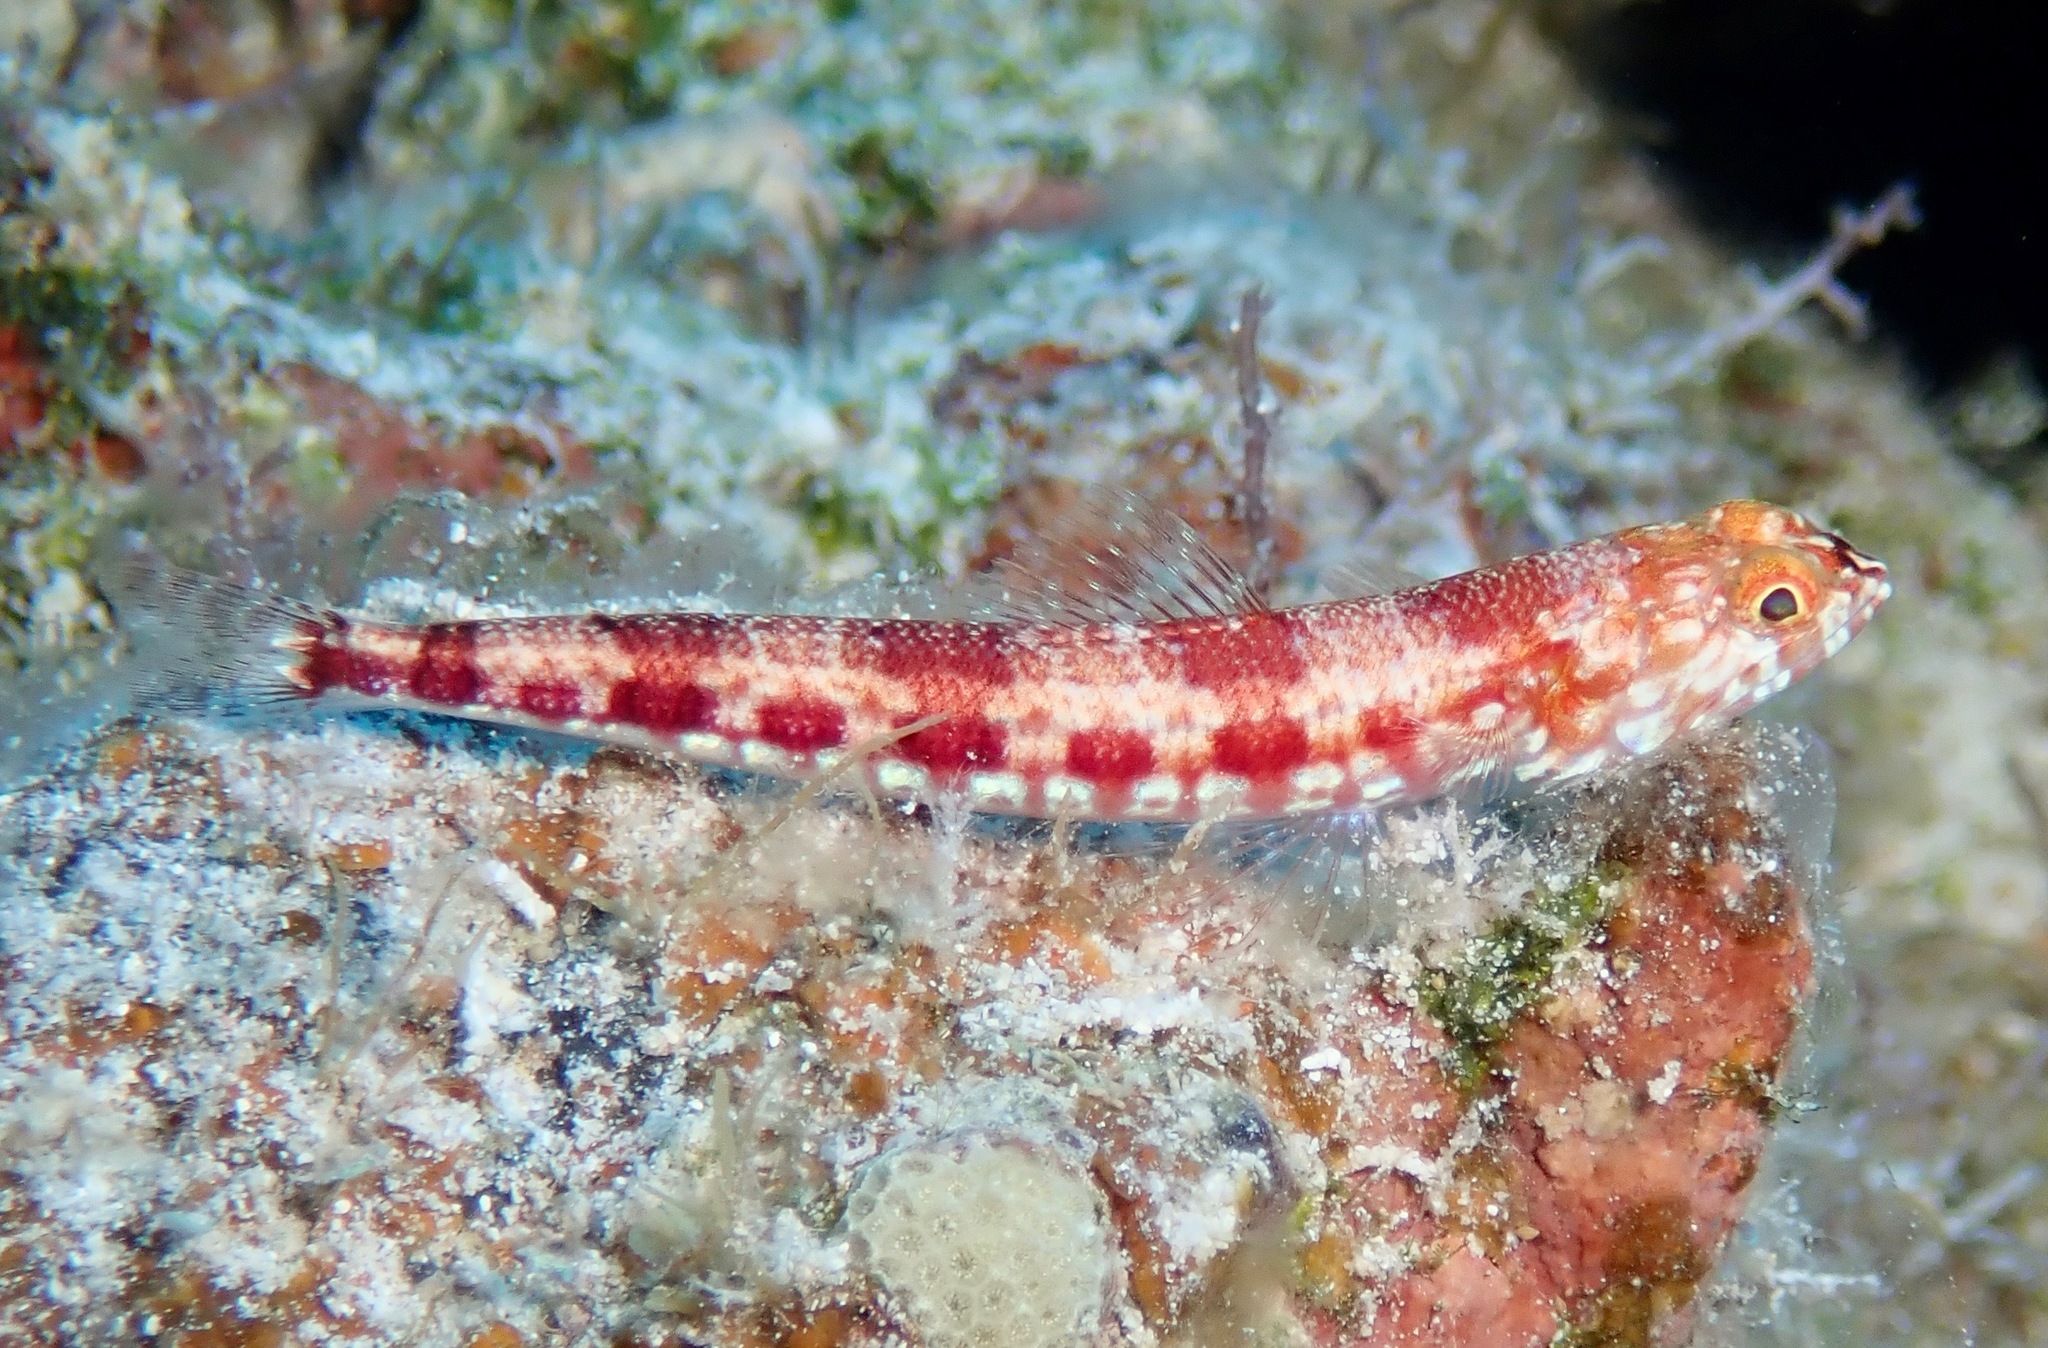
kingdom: Animalia
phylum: Chordata
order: Aulopiformes
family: Synodontidae
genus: Synodus
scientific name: Synodus capricornis
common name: Capricorn lizardfish
